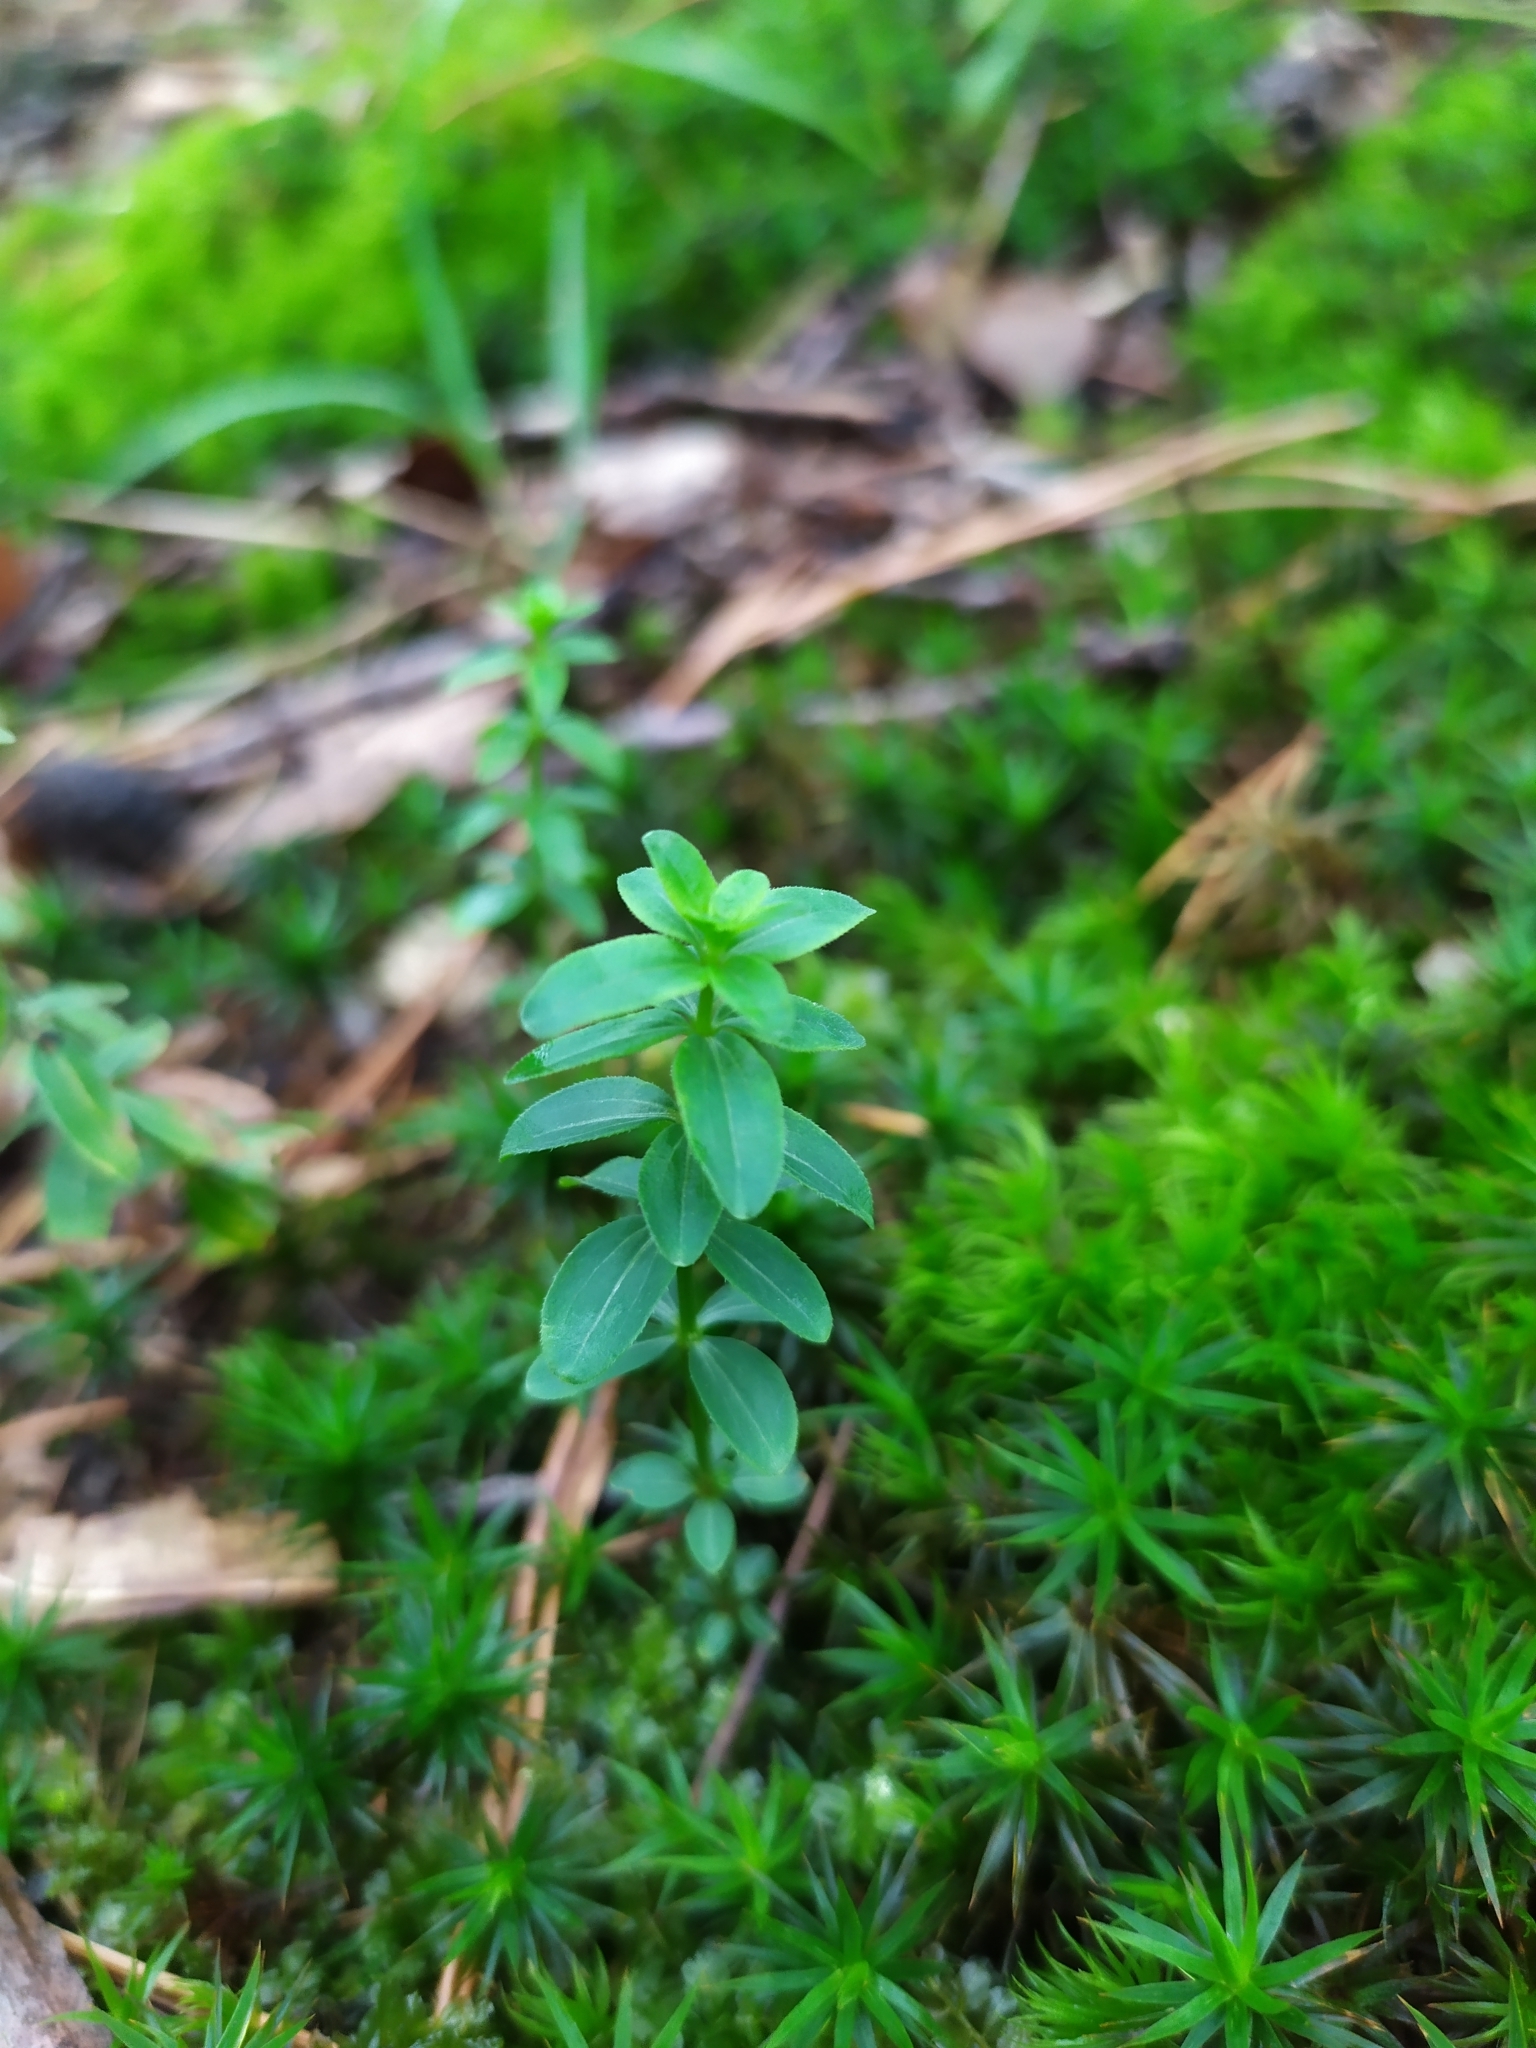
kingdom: Plantae
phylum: Tracheophyta
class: Magnoliopsida
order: Gentianales
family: Rubiaceae
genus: Galium
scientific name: Galium rotundifolium
